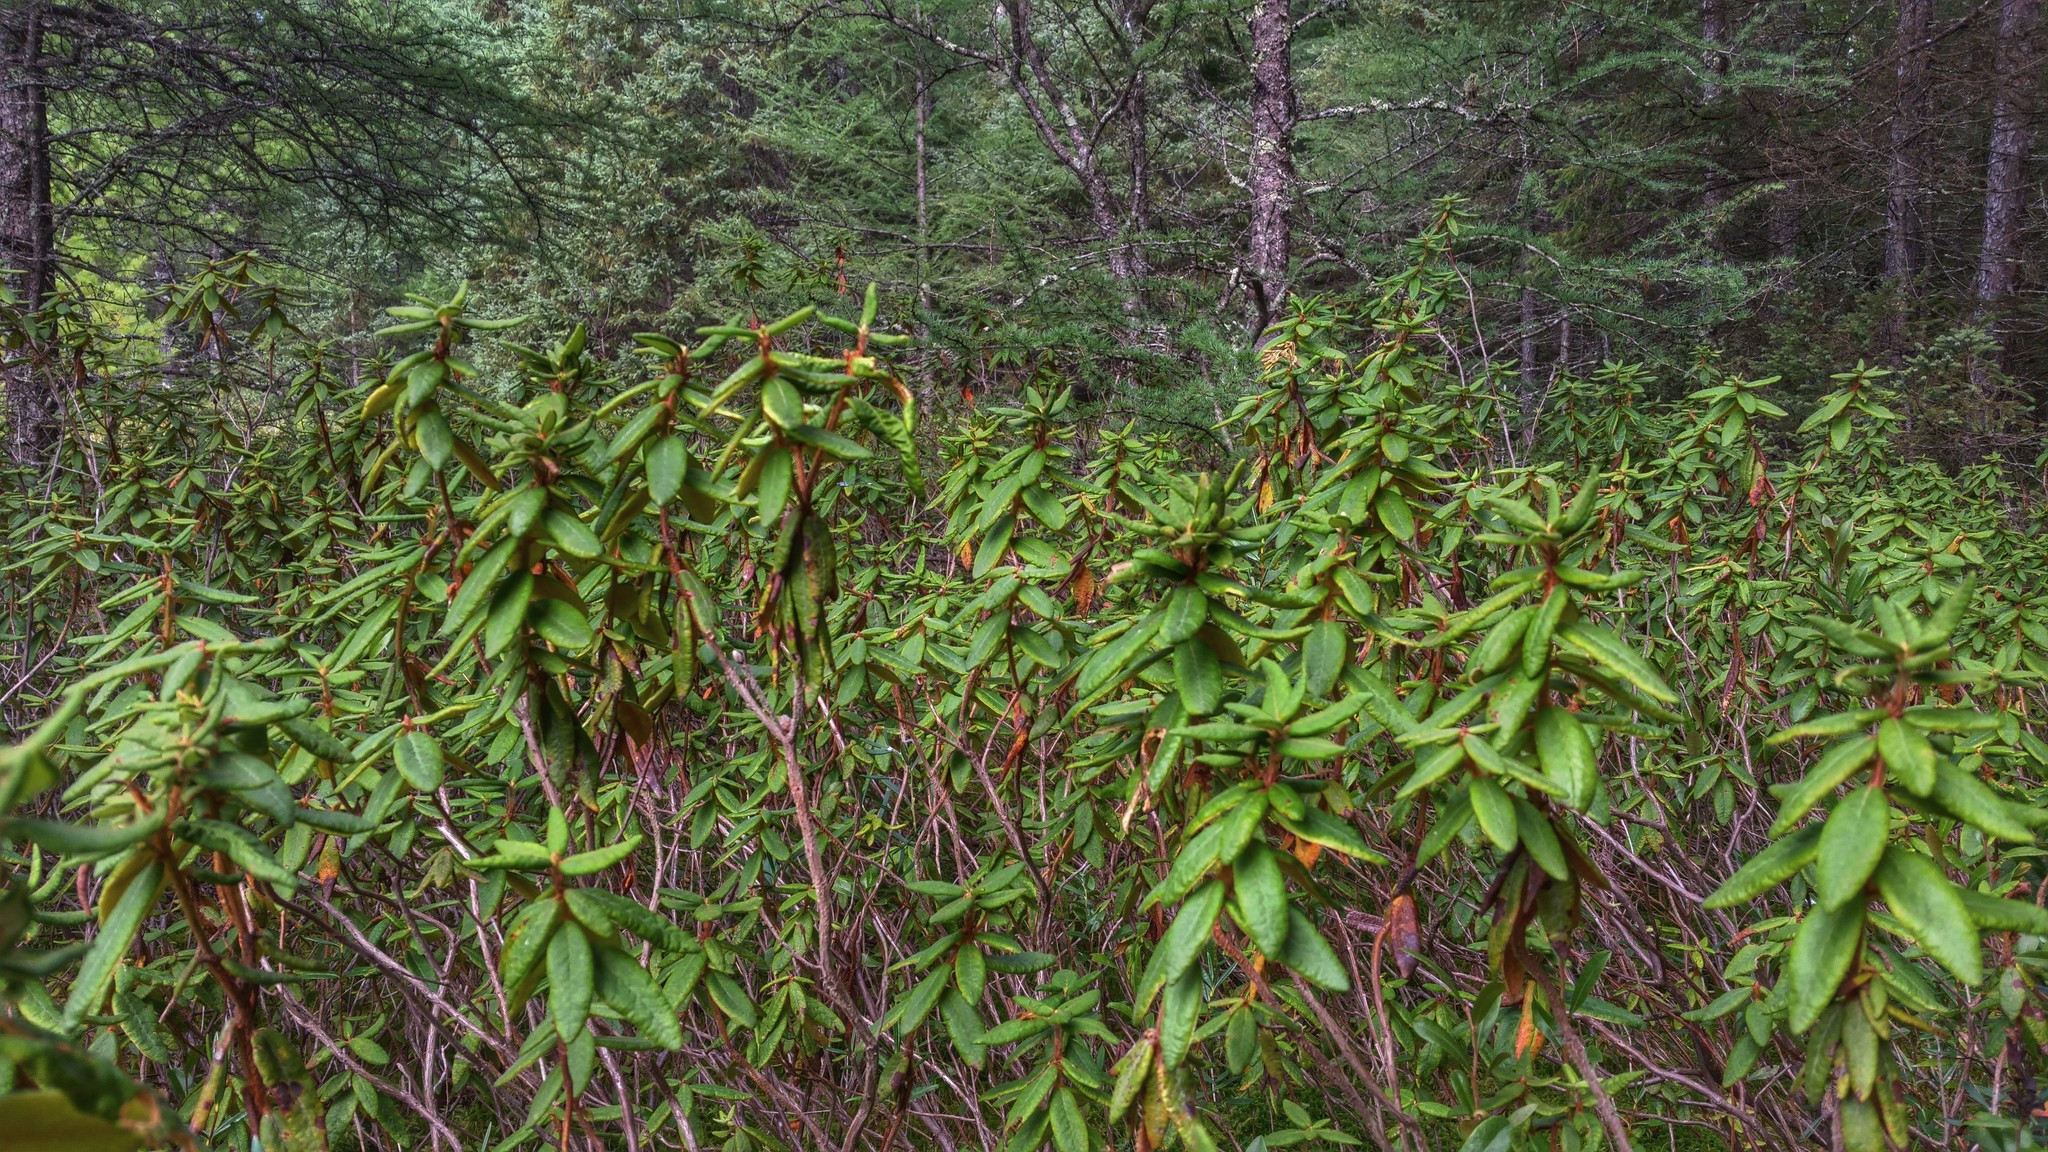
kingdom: Plantae
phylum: Tracheophyta
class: Magnoliopsida
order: Ericales
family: Ericaceae
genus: Rhododendron
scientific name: Rhododendron groenlandicum
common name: Bog labrador tea
